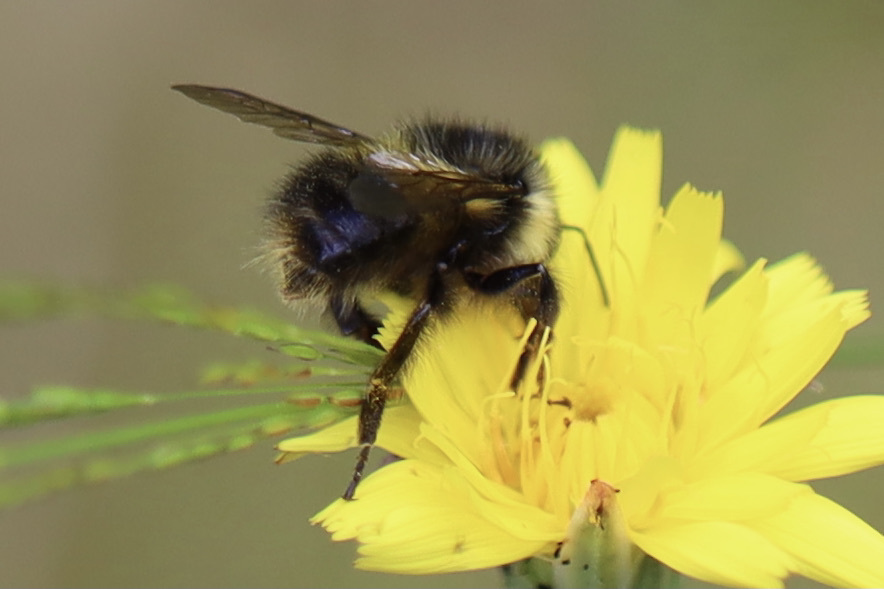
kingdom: Animalia
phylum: Arthropoda
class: Insecta
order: Hymenoptera
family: Apidae
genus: Bombus
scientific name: Bombus sitkensis
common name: Sitka bumble bee
